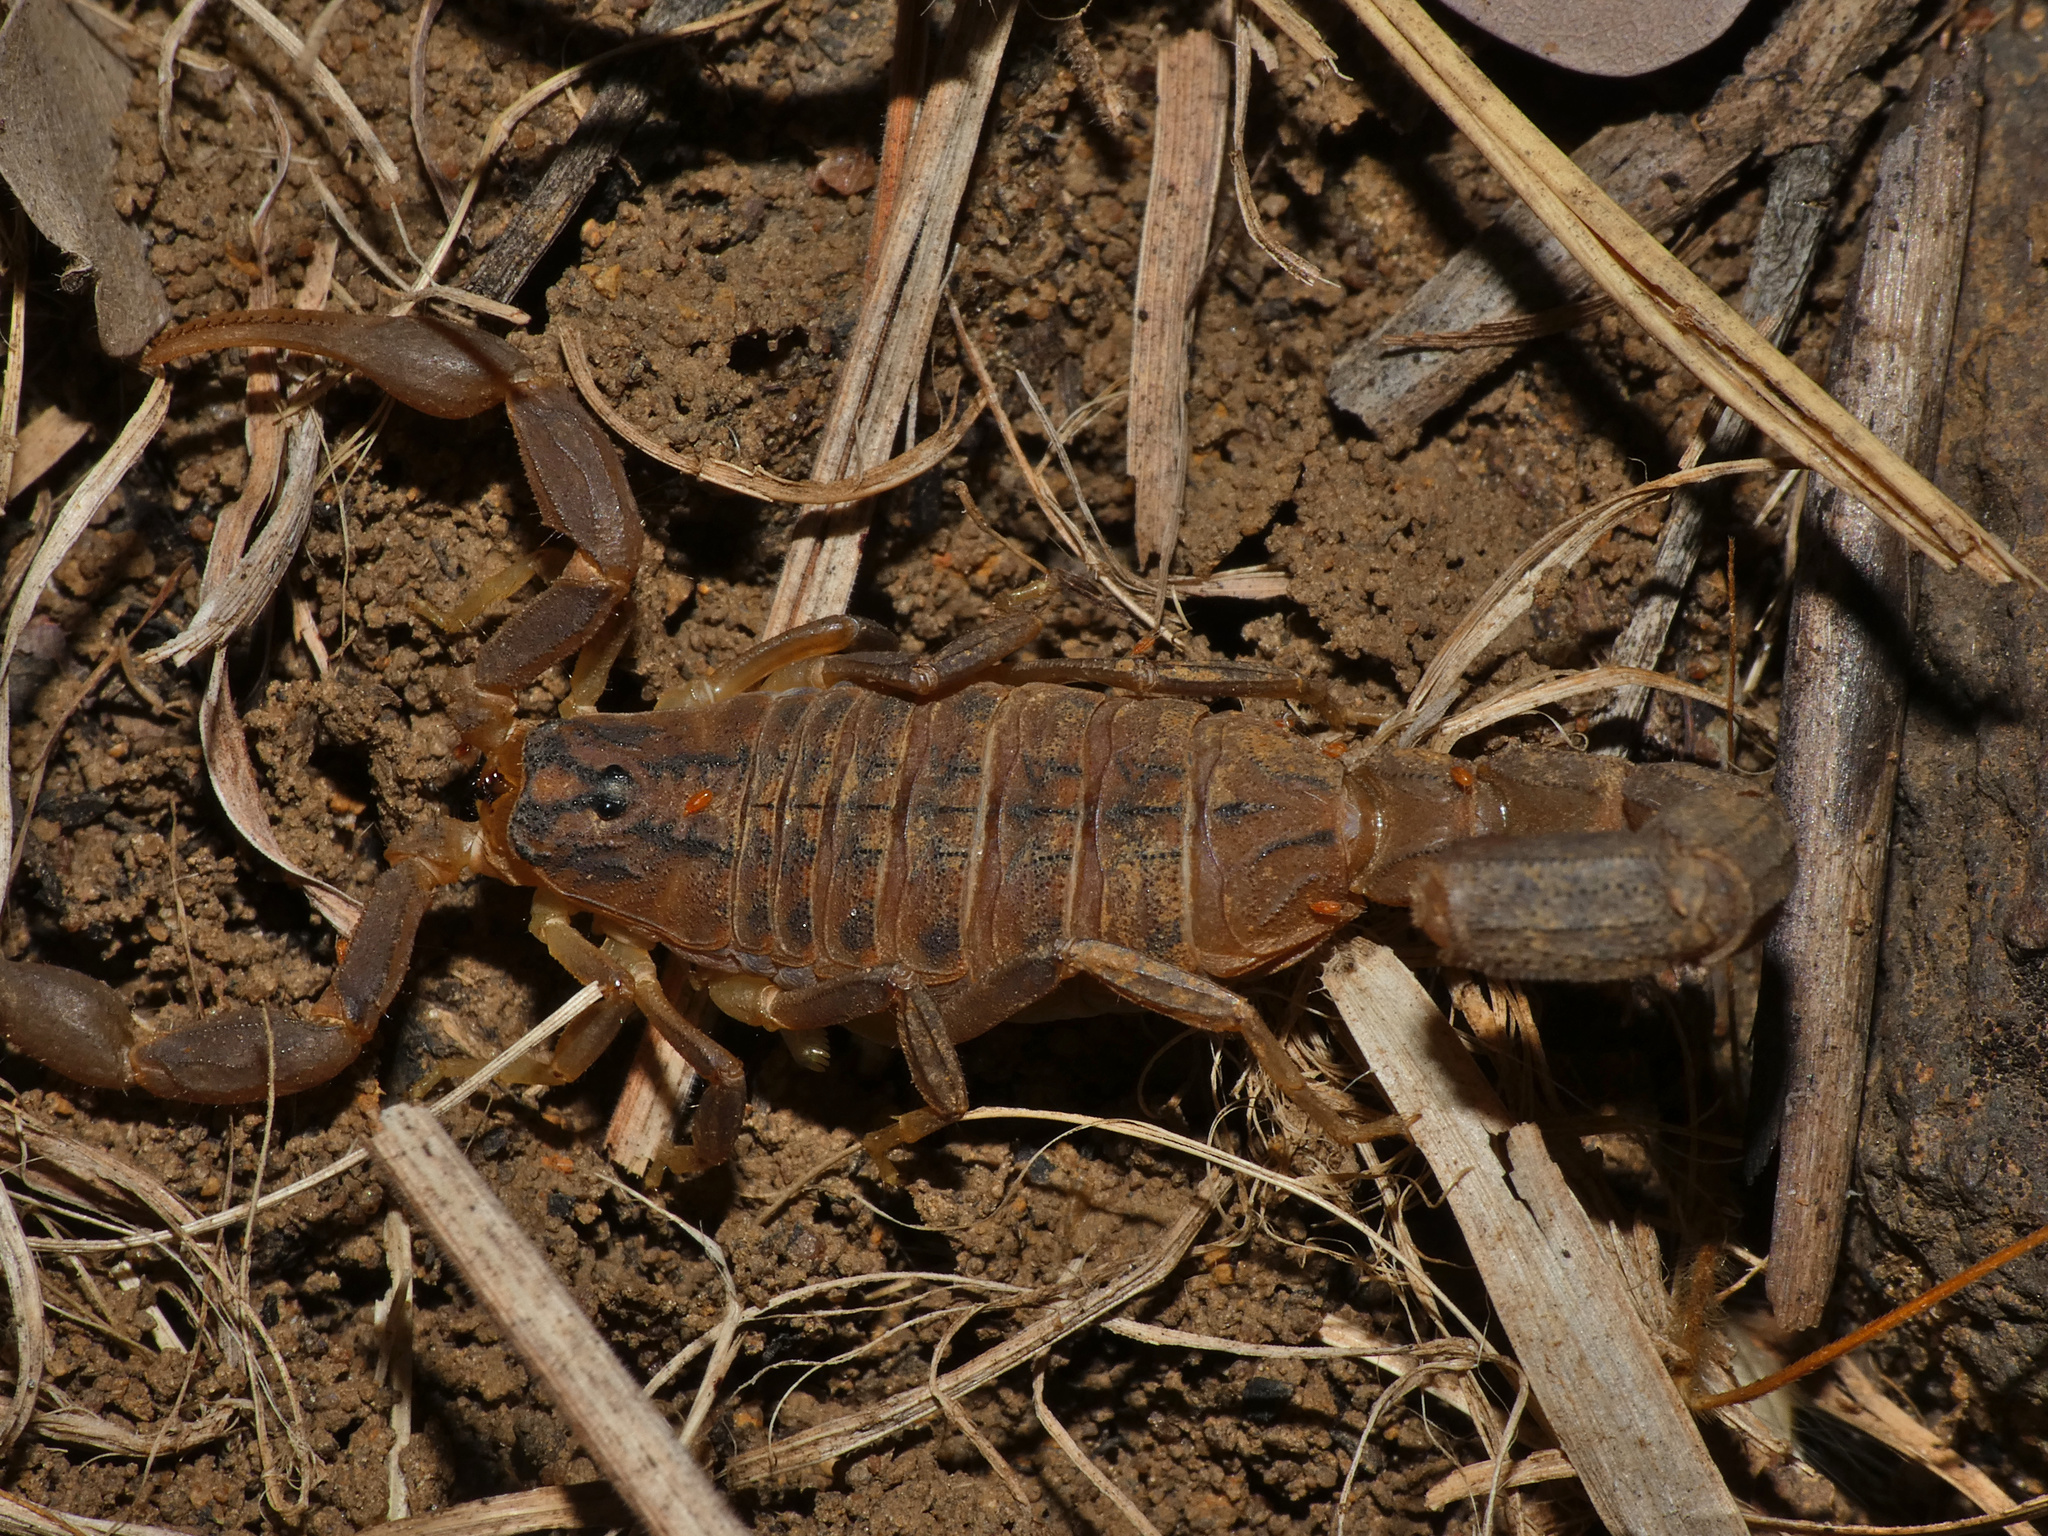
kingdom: Animalia
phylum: Arthropoda
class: Arachnida
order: Scorpiones
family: Buthidae
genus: Hottentotta
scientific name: Hottentotta trilineatus
